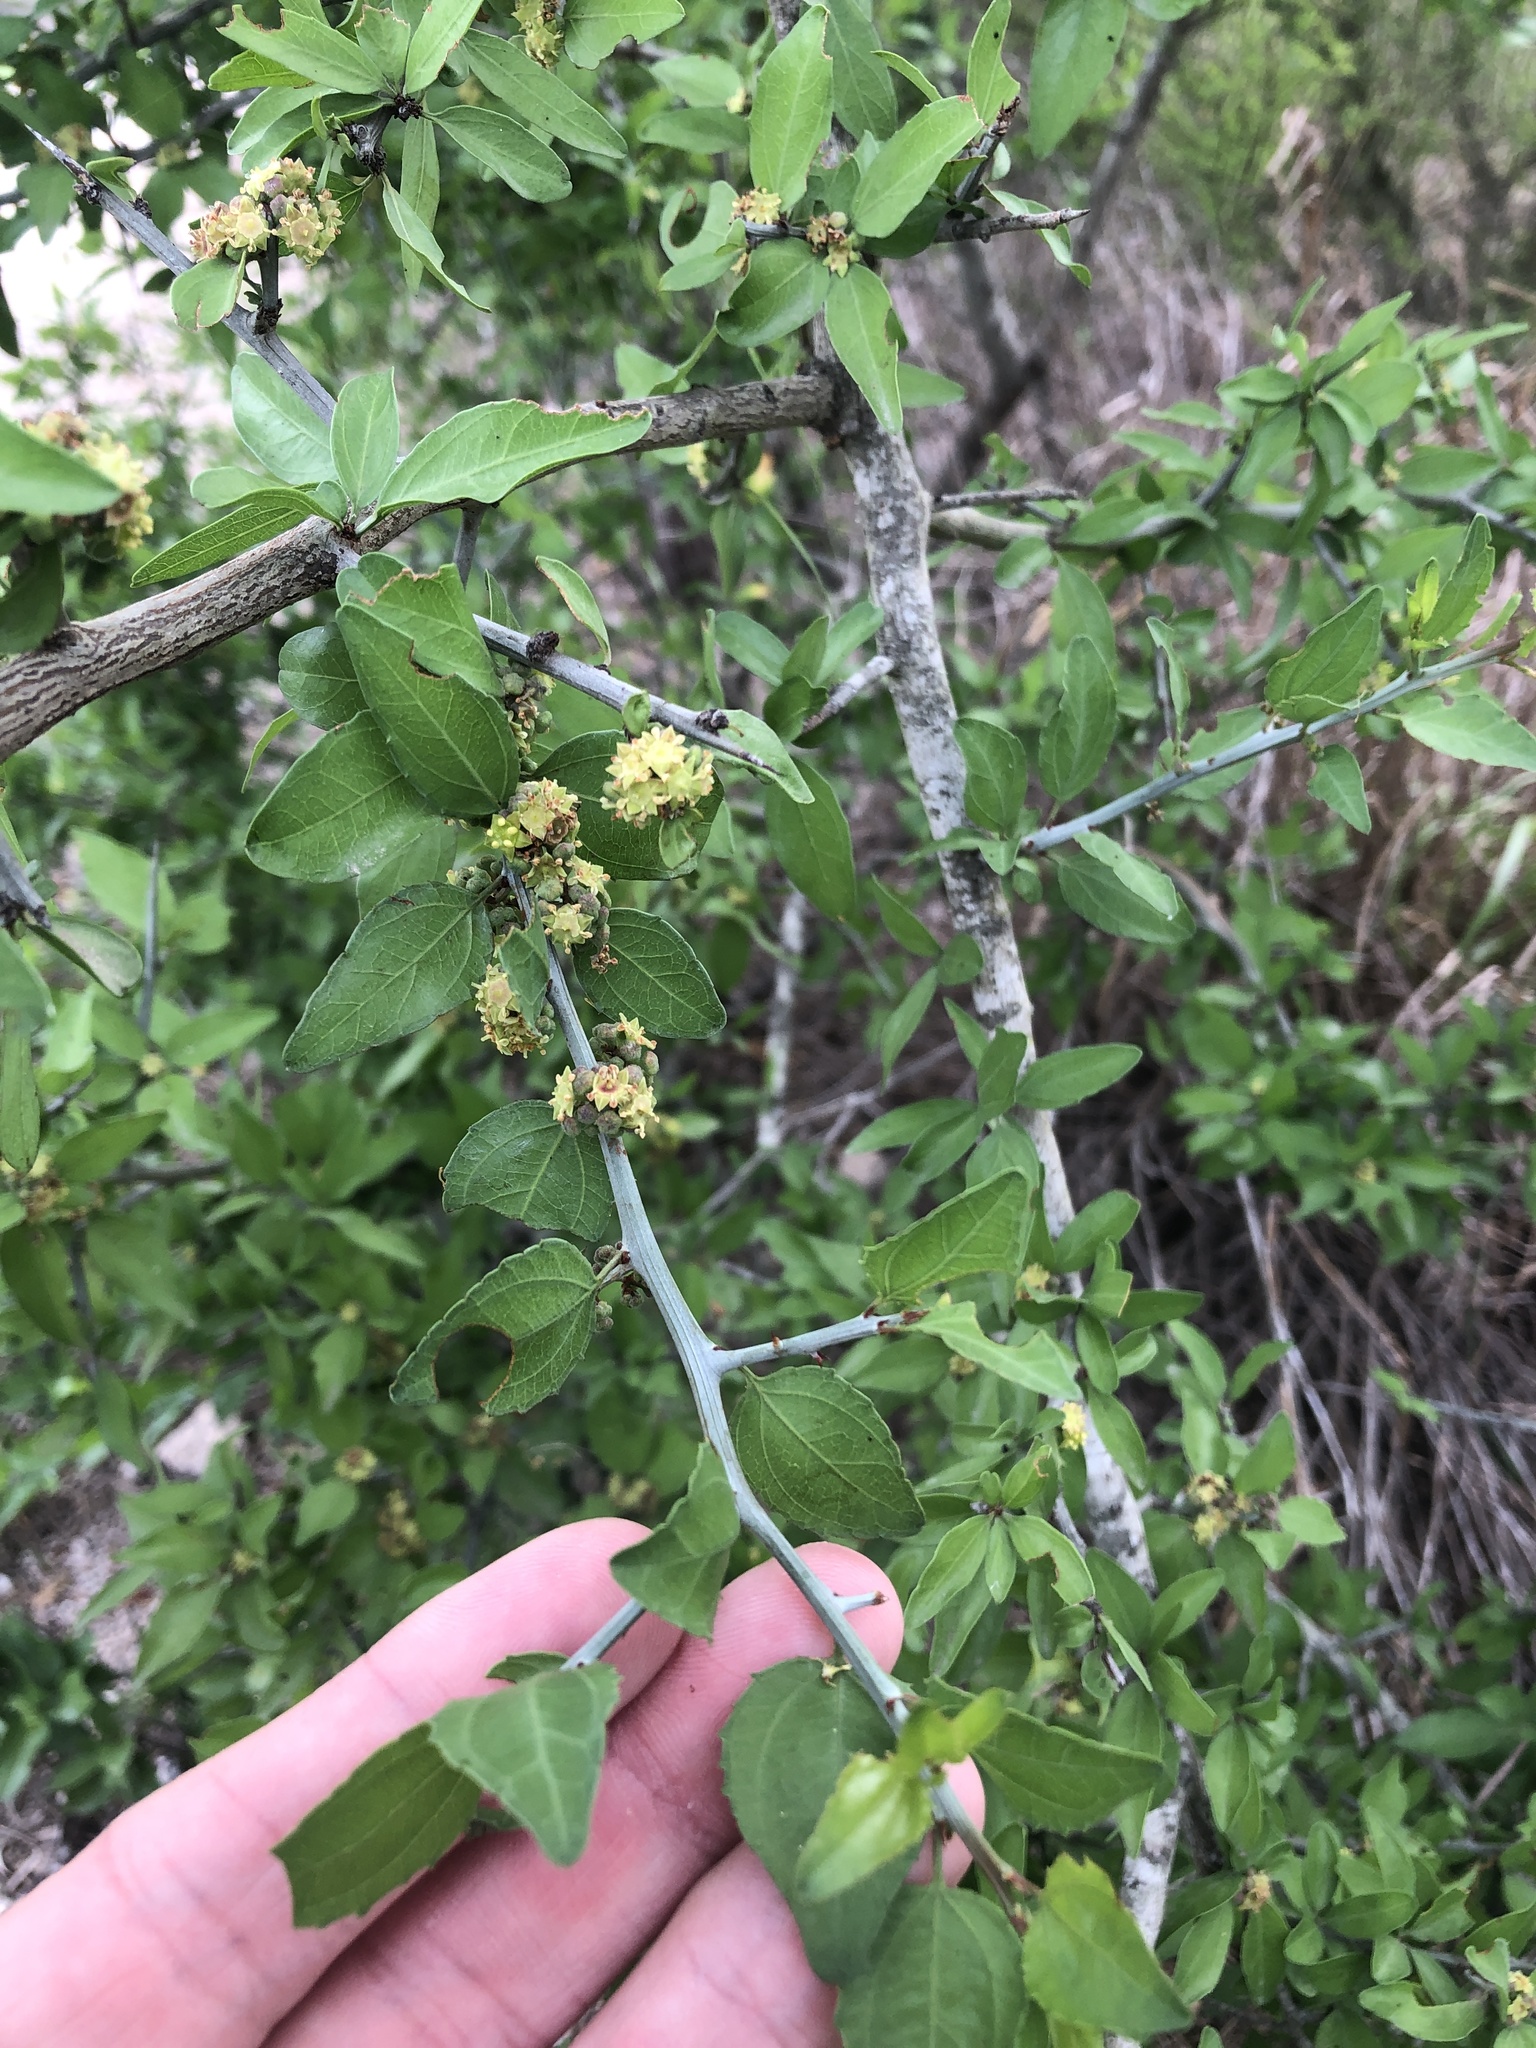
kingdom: Plantae
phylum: Tracheophyta
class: Magnoliopsida
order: Rosales
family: Rhamnaceae
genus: Sarcomphalus
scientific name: Sarcomphalus obtusifolius
